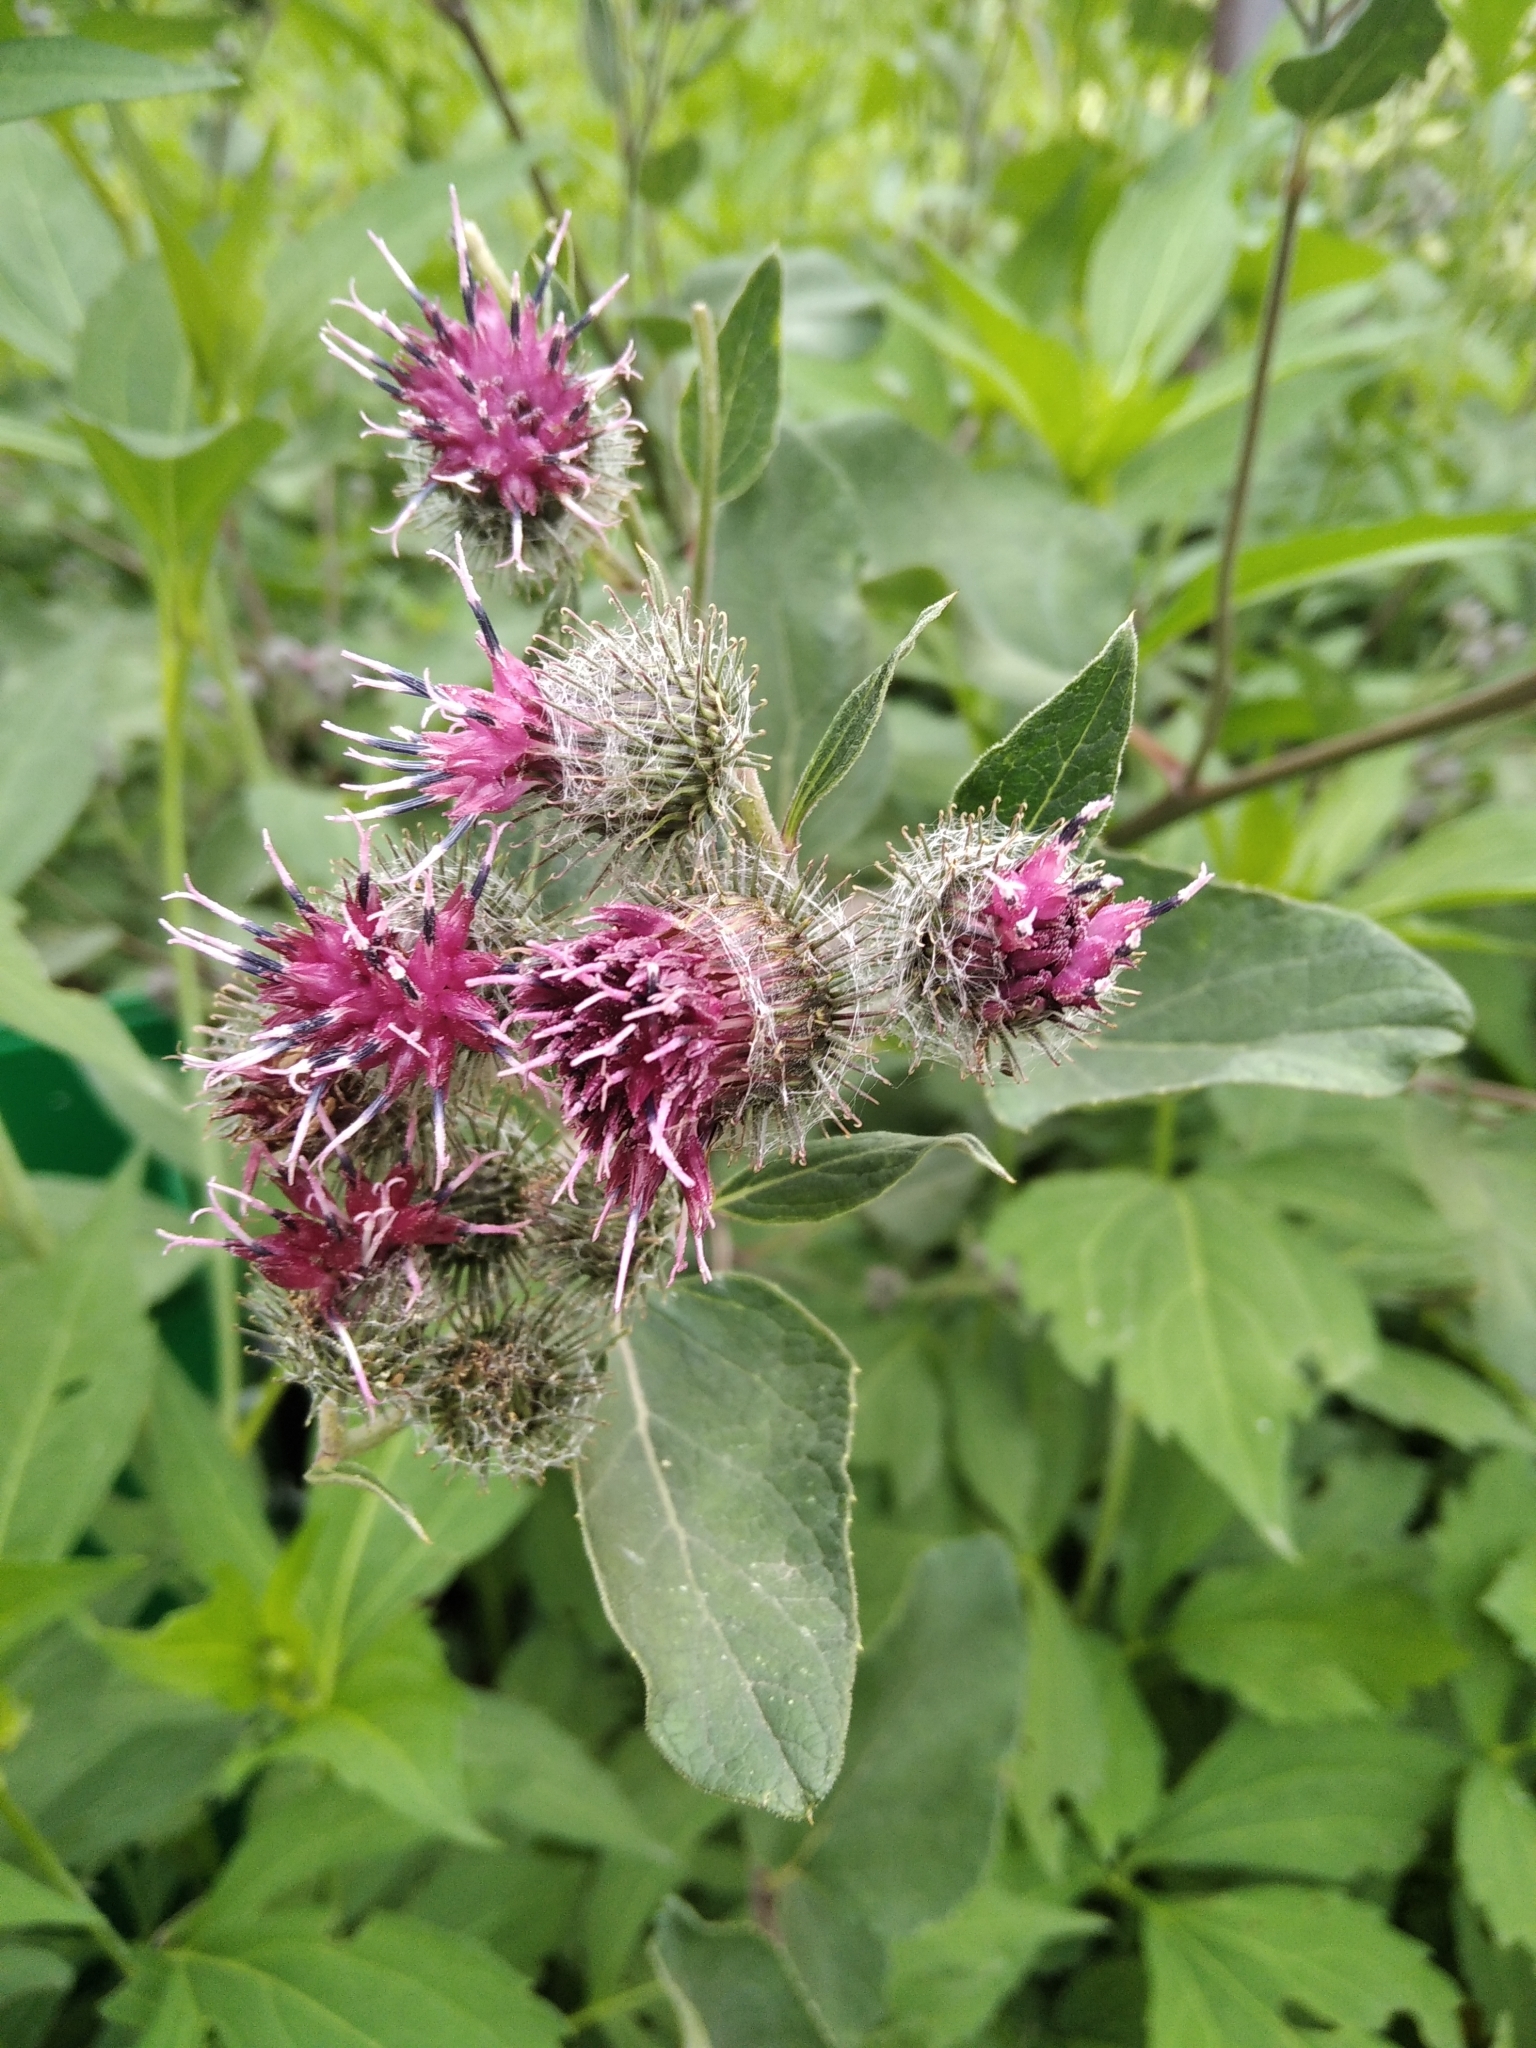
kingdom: Plantae
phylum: Tracheophyta
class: Magnoliopsida
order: Asterales
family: Asteraceae
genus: Arctium
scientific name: Arctium tomentosum
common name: Woolly burdock
